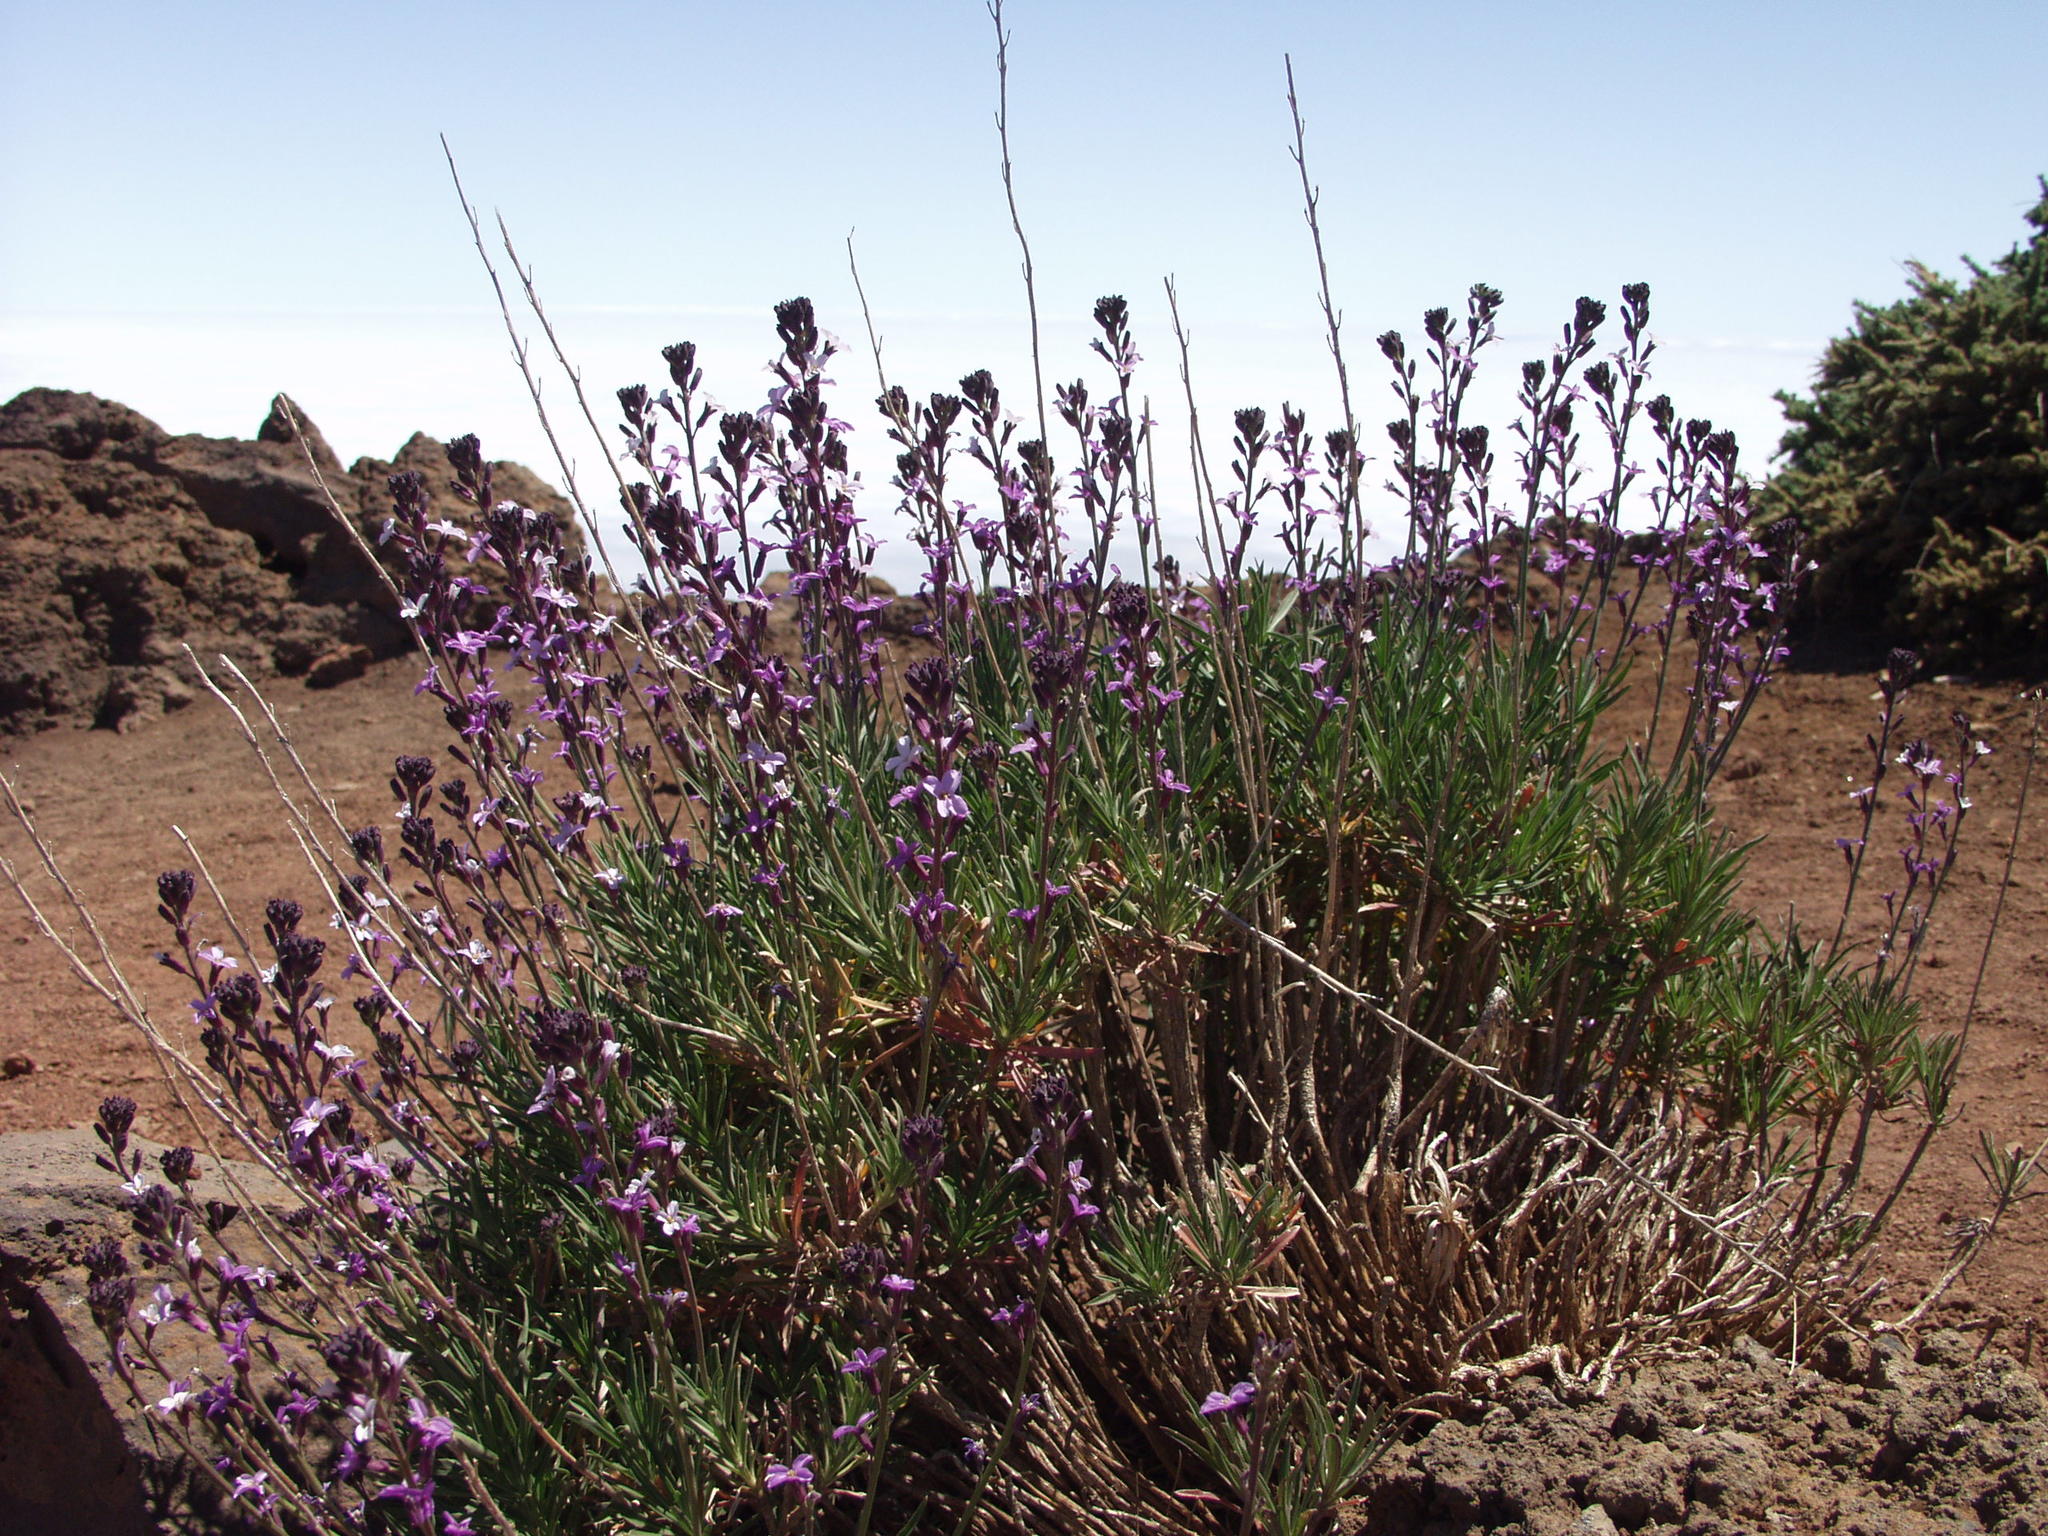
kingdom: Plantae
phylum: Tracheophyta
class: Magnoliopsida
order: Brassicales
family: Brassicaceae
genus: Erysimum
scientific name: Erysimum scoparium
